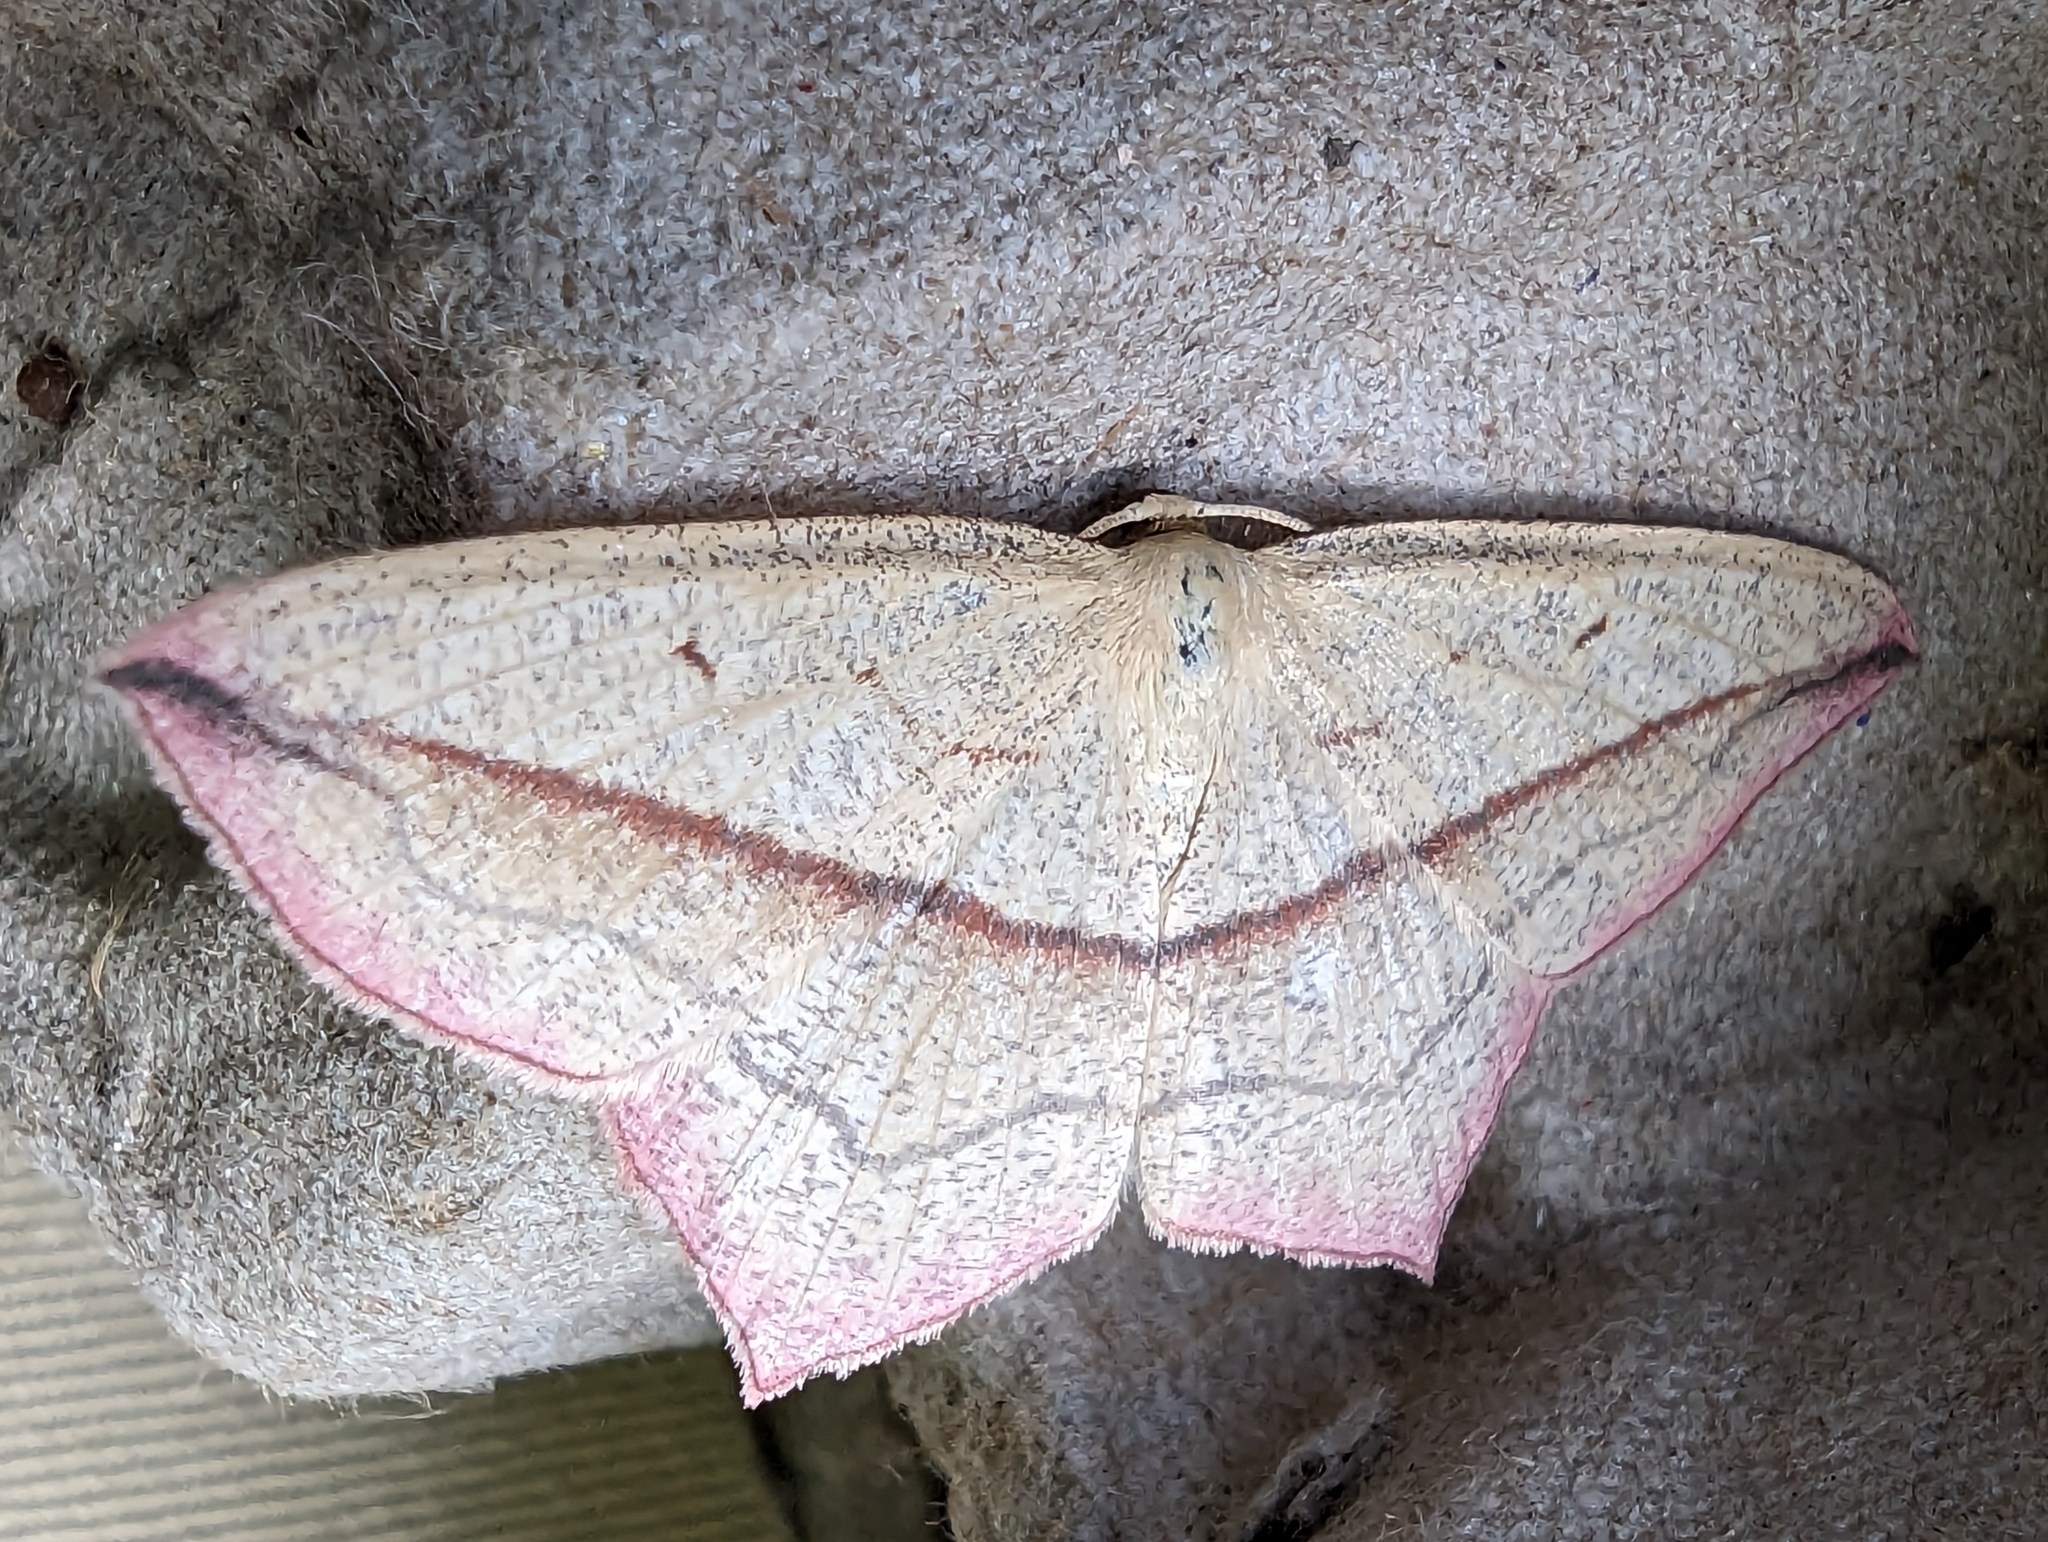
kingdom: Animalia
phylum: Arthropoda
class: Insecta
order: Lepidoptera
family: Geometridae
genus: Timandra
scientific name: Timandra comae
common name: Blood-vein
